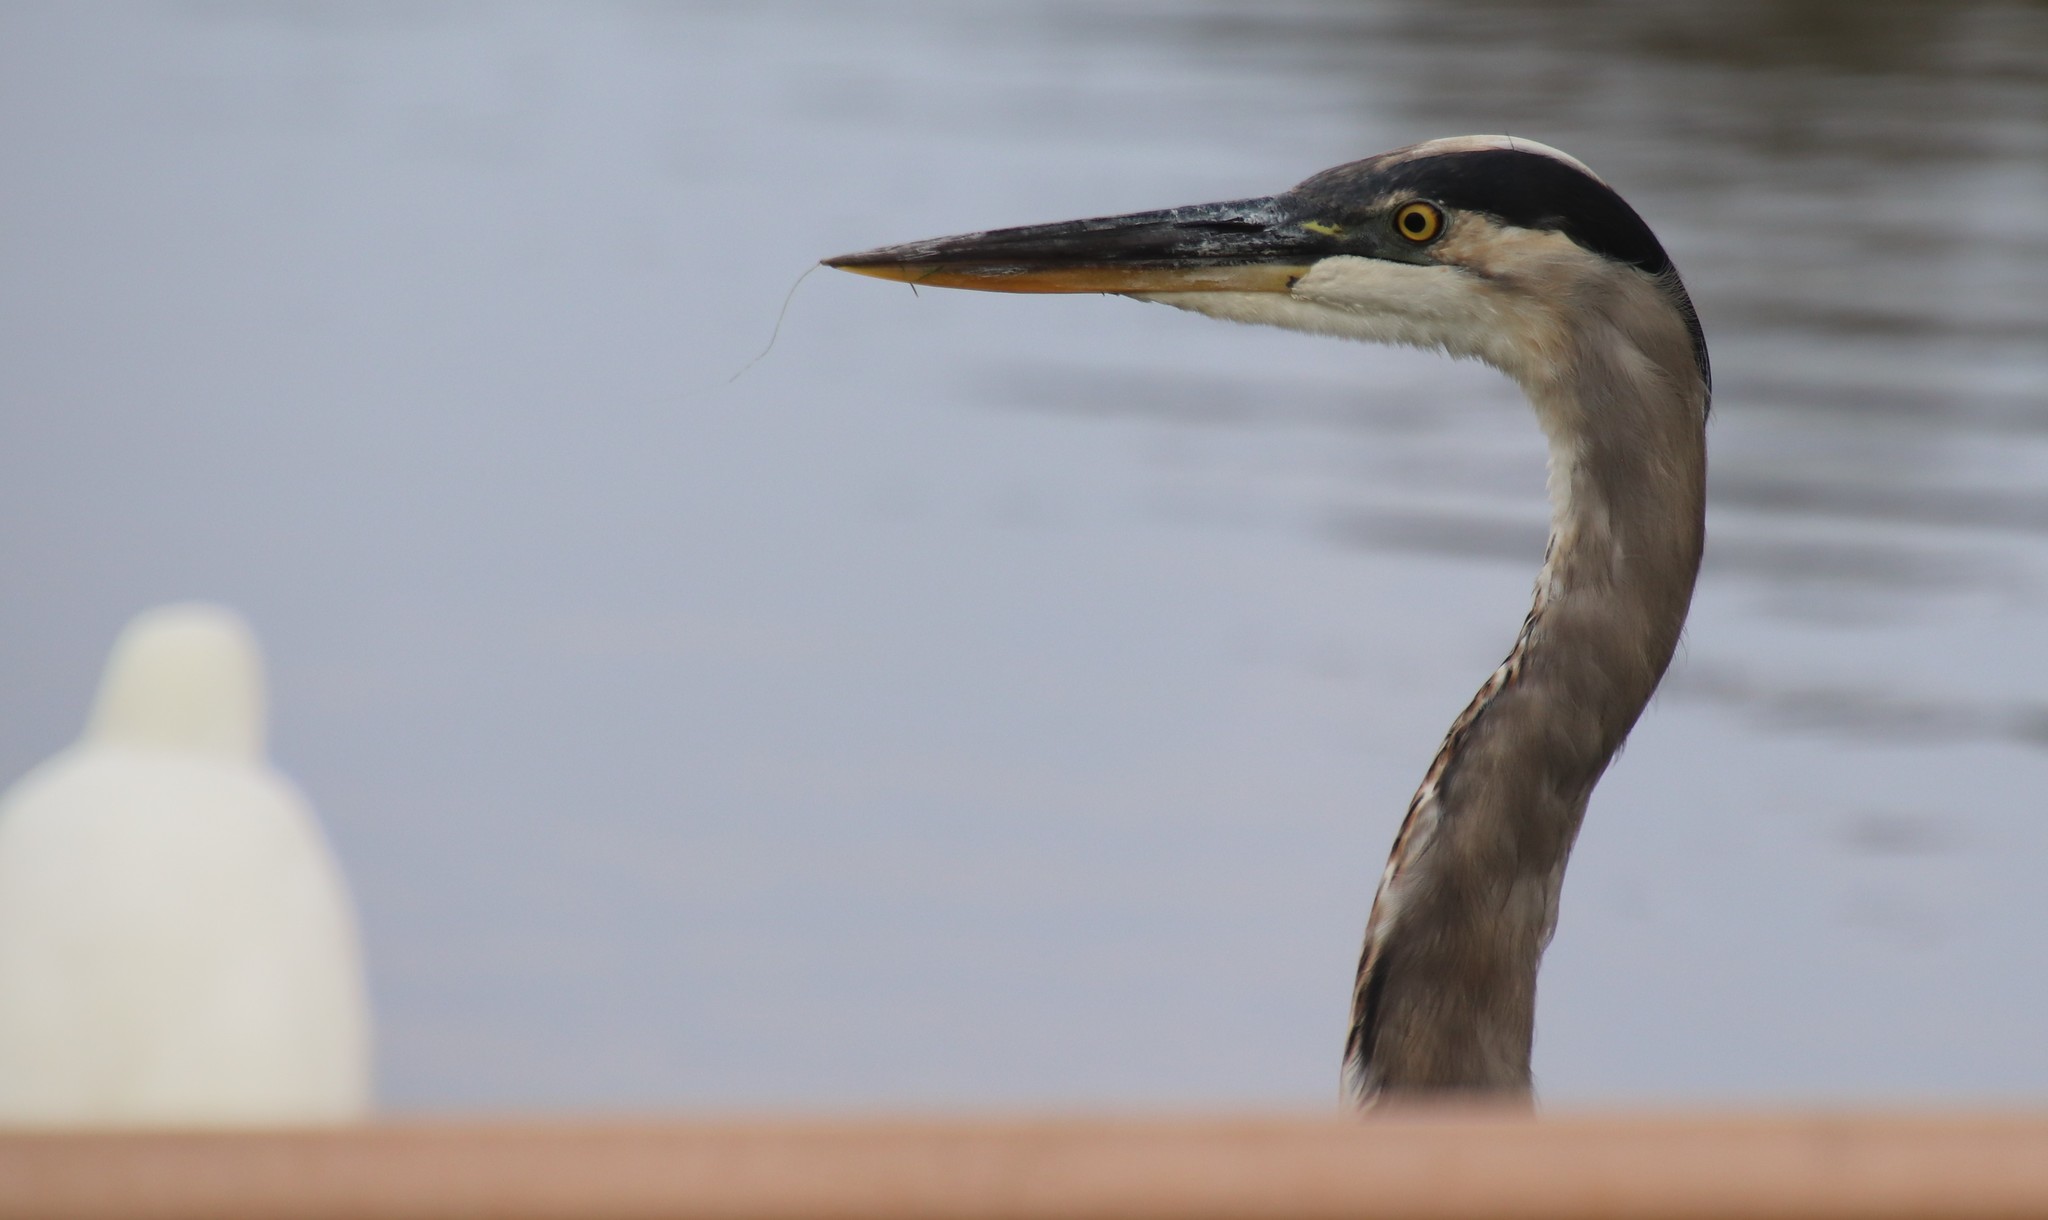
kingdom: Animalia
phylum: Chordata
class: Aves
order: Pelecaniformes
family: Ardeidae
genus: Ardea
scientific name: Ardea herodias
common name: Great blue heron
